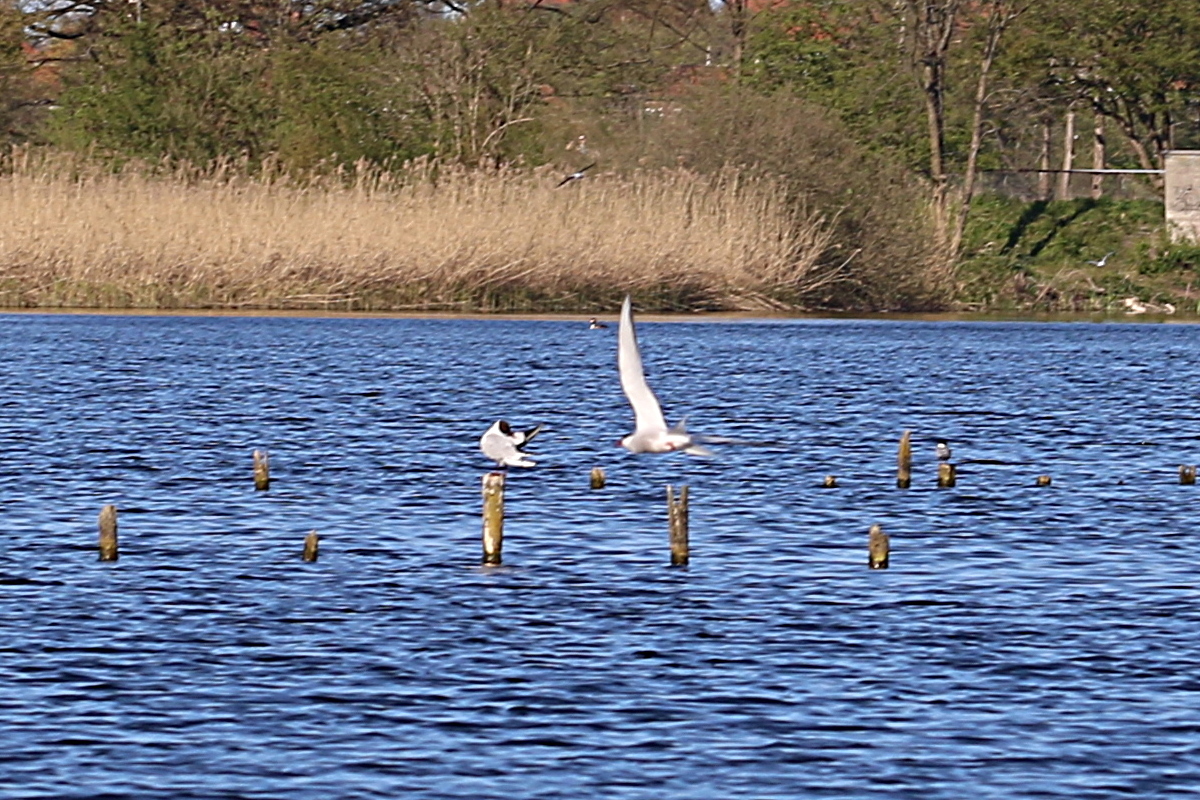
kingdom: Animalia
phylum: Chordata
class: Aves
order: Charadriiformes
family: Laridae
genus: Sterna
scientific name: Sterna hirundo
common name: Common tern
